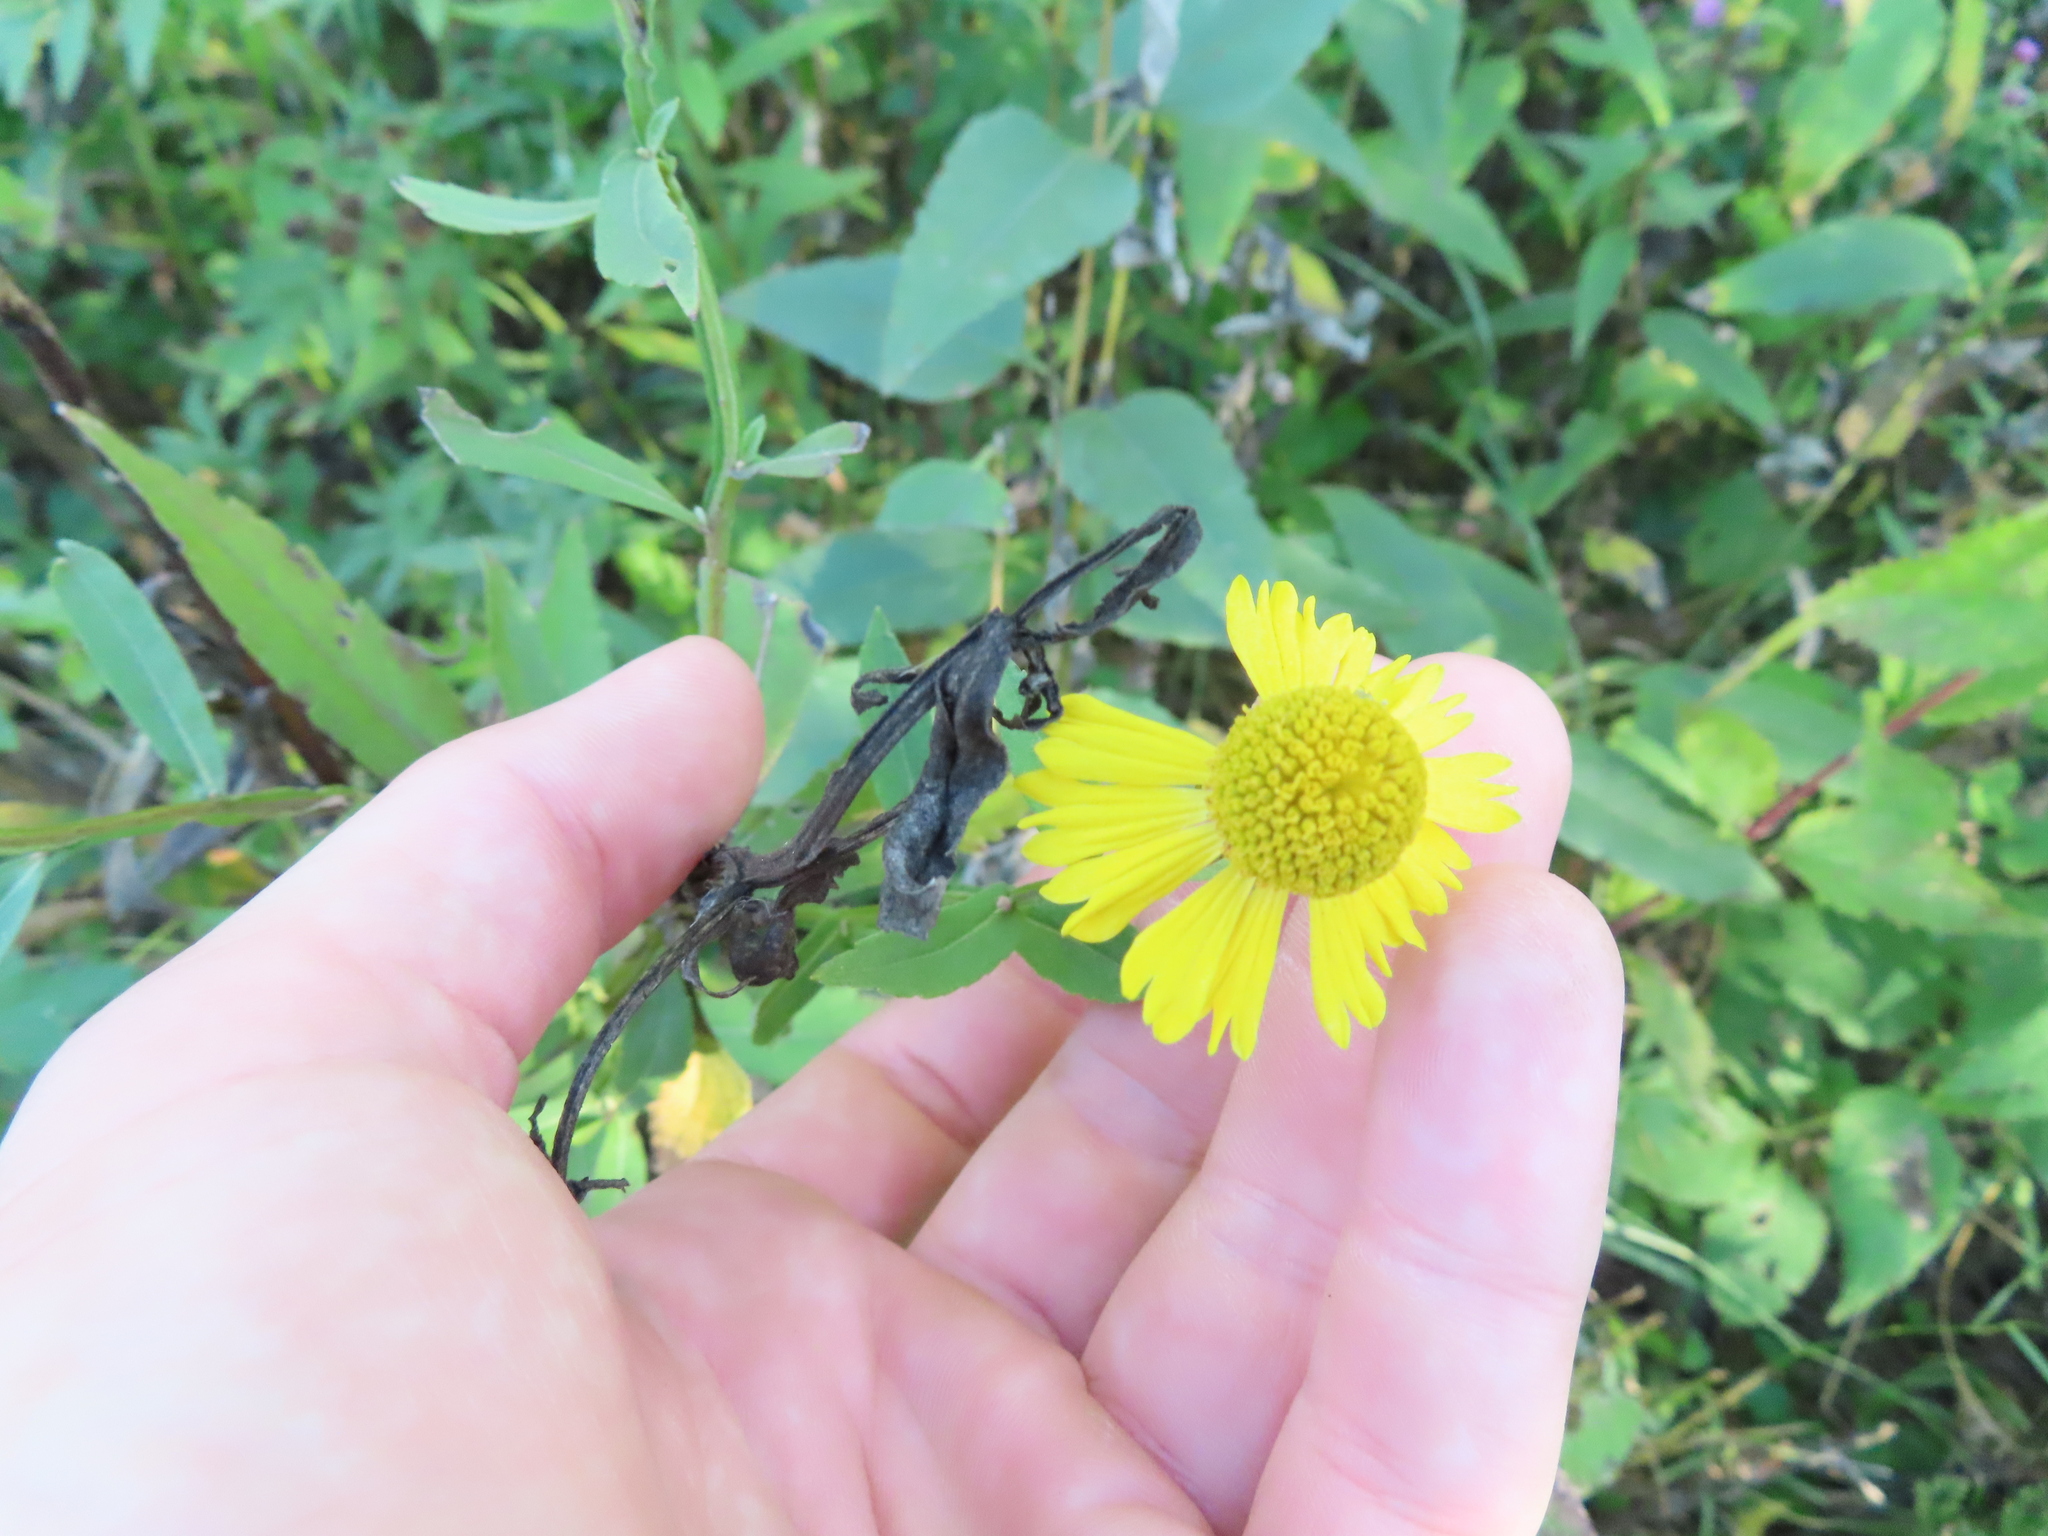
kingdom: Plantae
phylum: Tracheophyta
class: Magnoliopsida
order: Asterales
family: Asteraceae
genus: Helenium
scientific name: Helenium autumnale
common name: Sneezeweed
